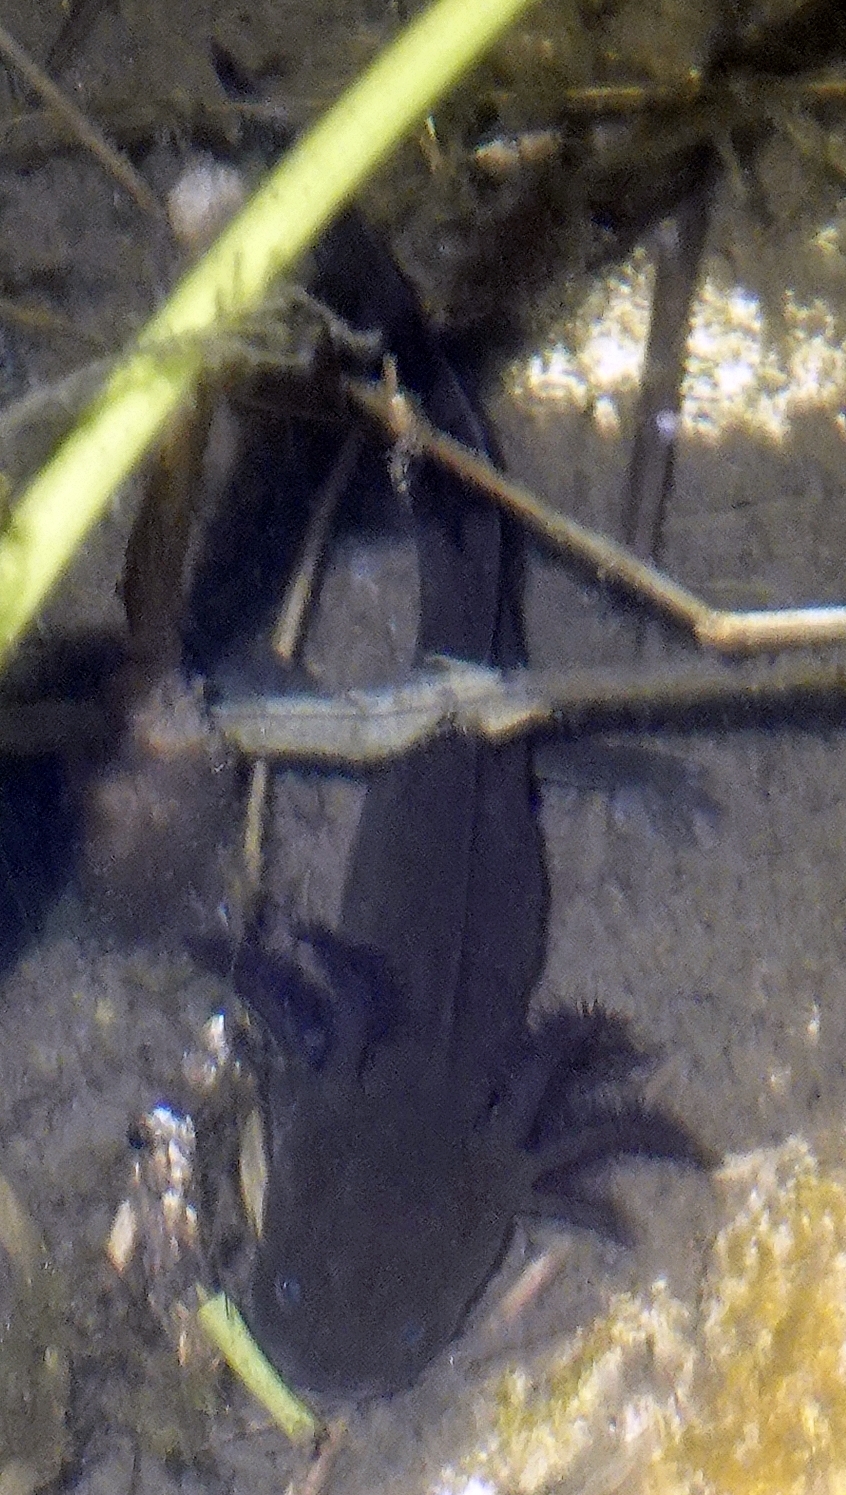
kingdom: Animalia
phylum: Chordata
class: Amphibia
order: Caudata
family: Ambystomatidae
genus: Ambystoma
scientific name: Ambystoma mavortium
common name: Western tiger salamander
